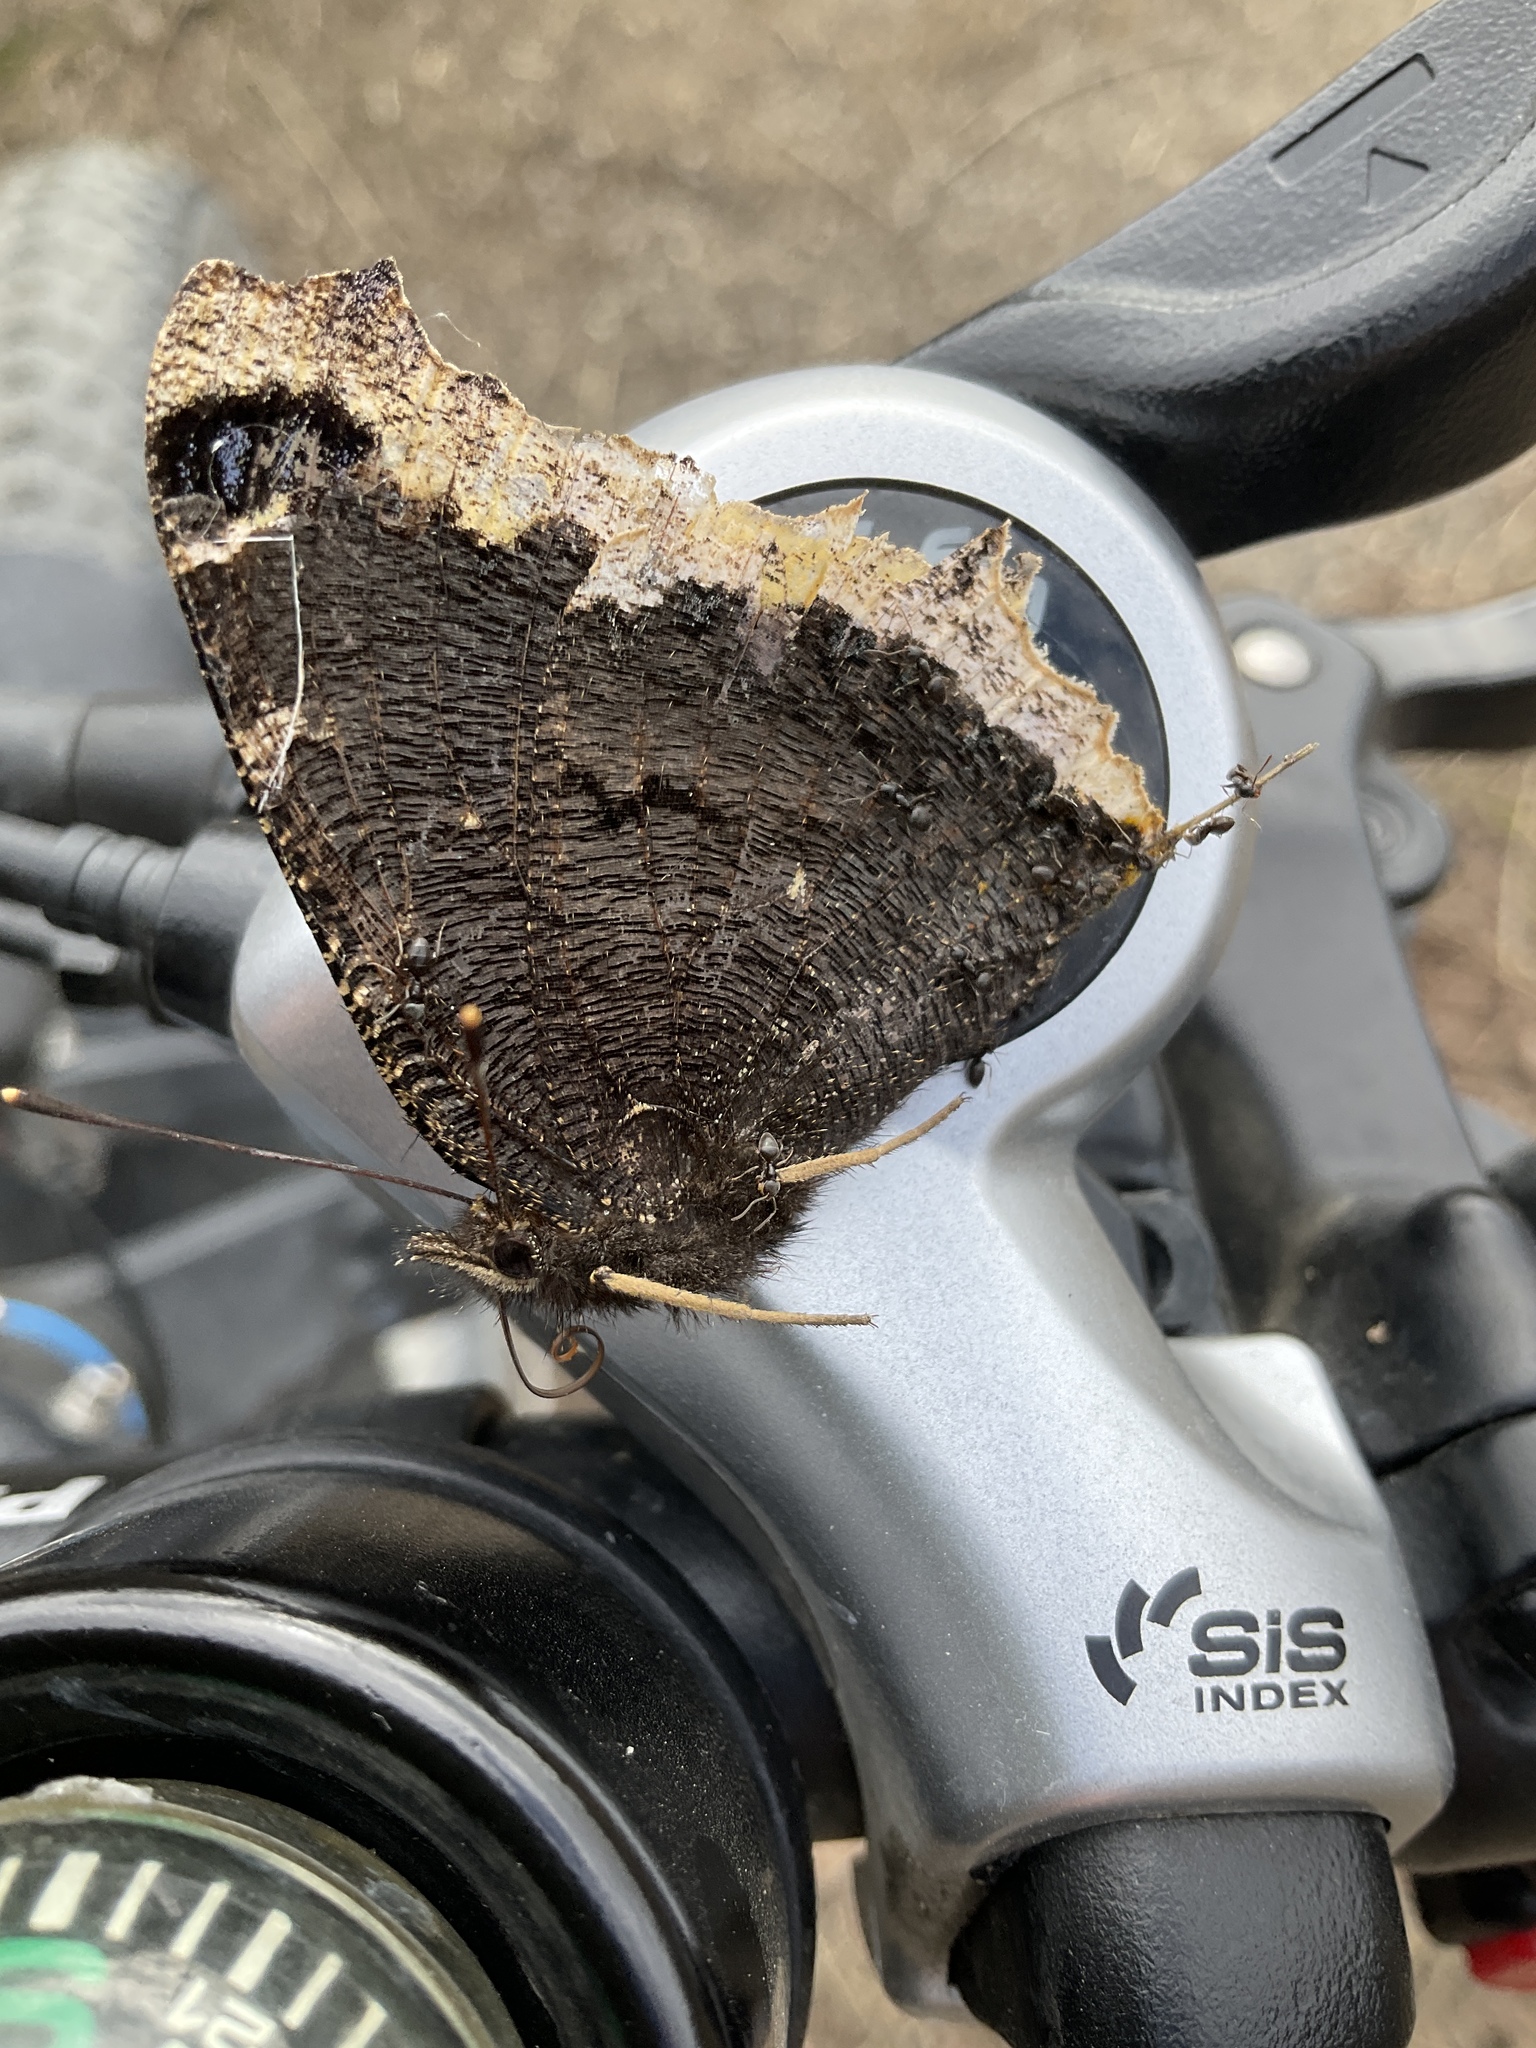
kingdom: Animalia
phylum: Arthropoda
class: Insecta
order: Lepidoptera
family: Nymphalidae
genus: Nymphalis
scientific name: Nymphalis antiopa
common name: Camberwell beauty
